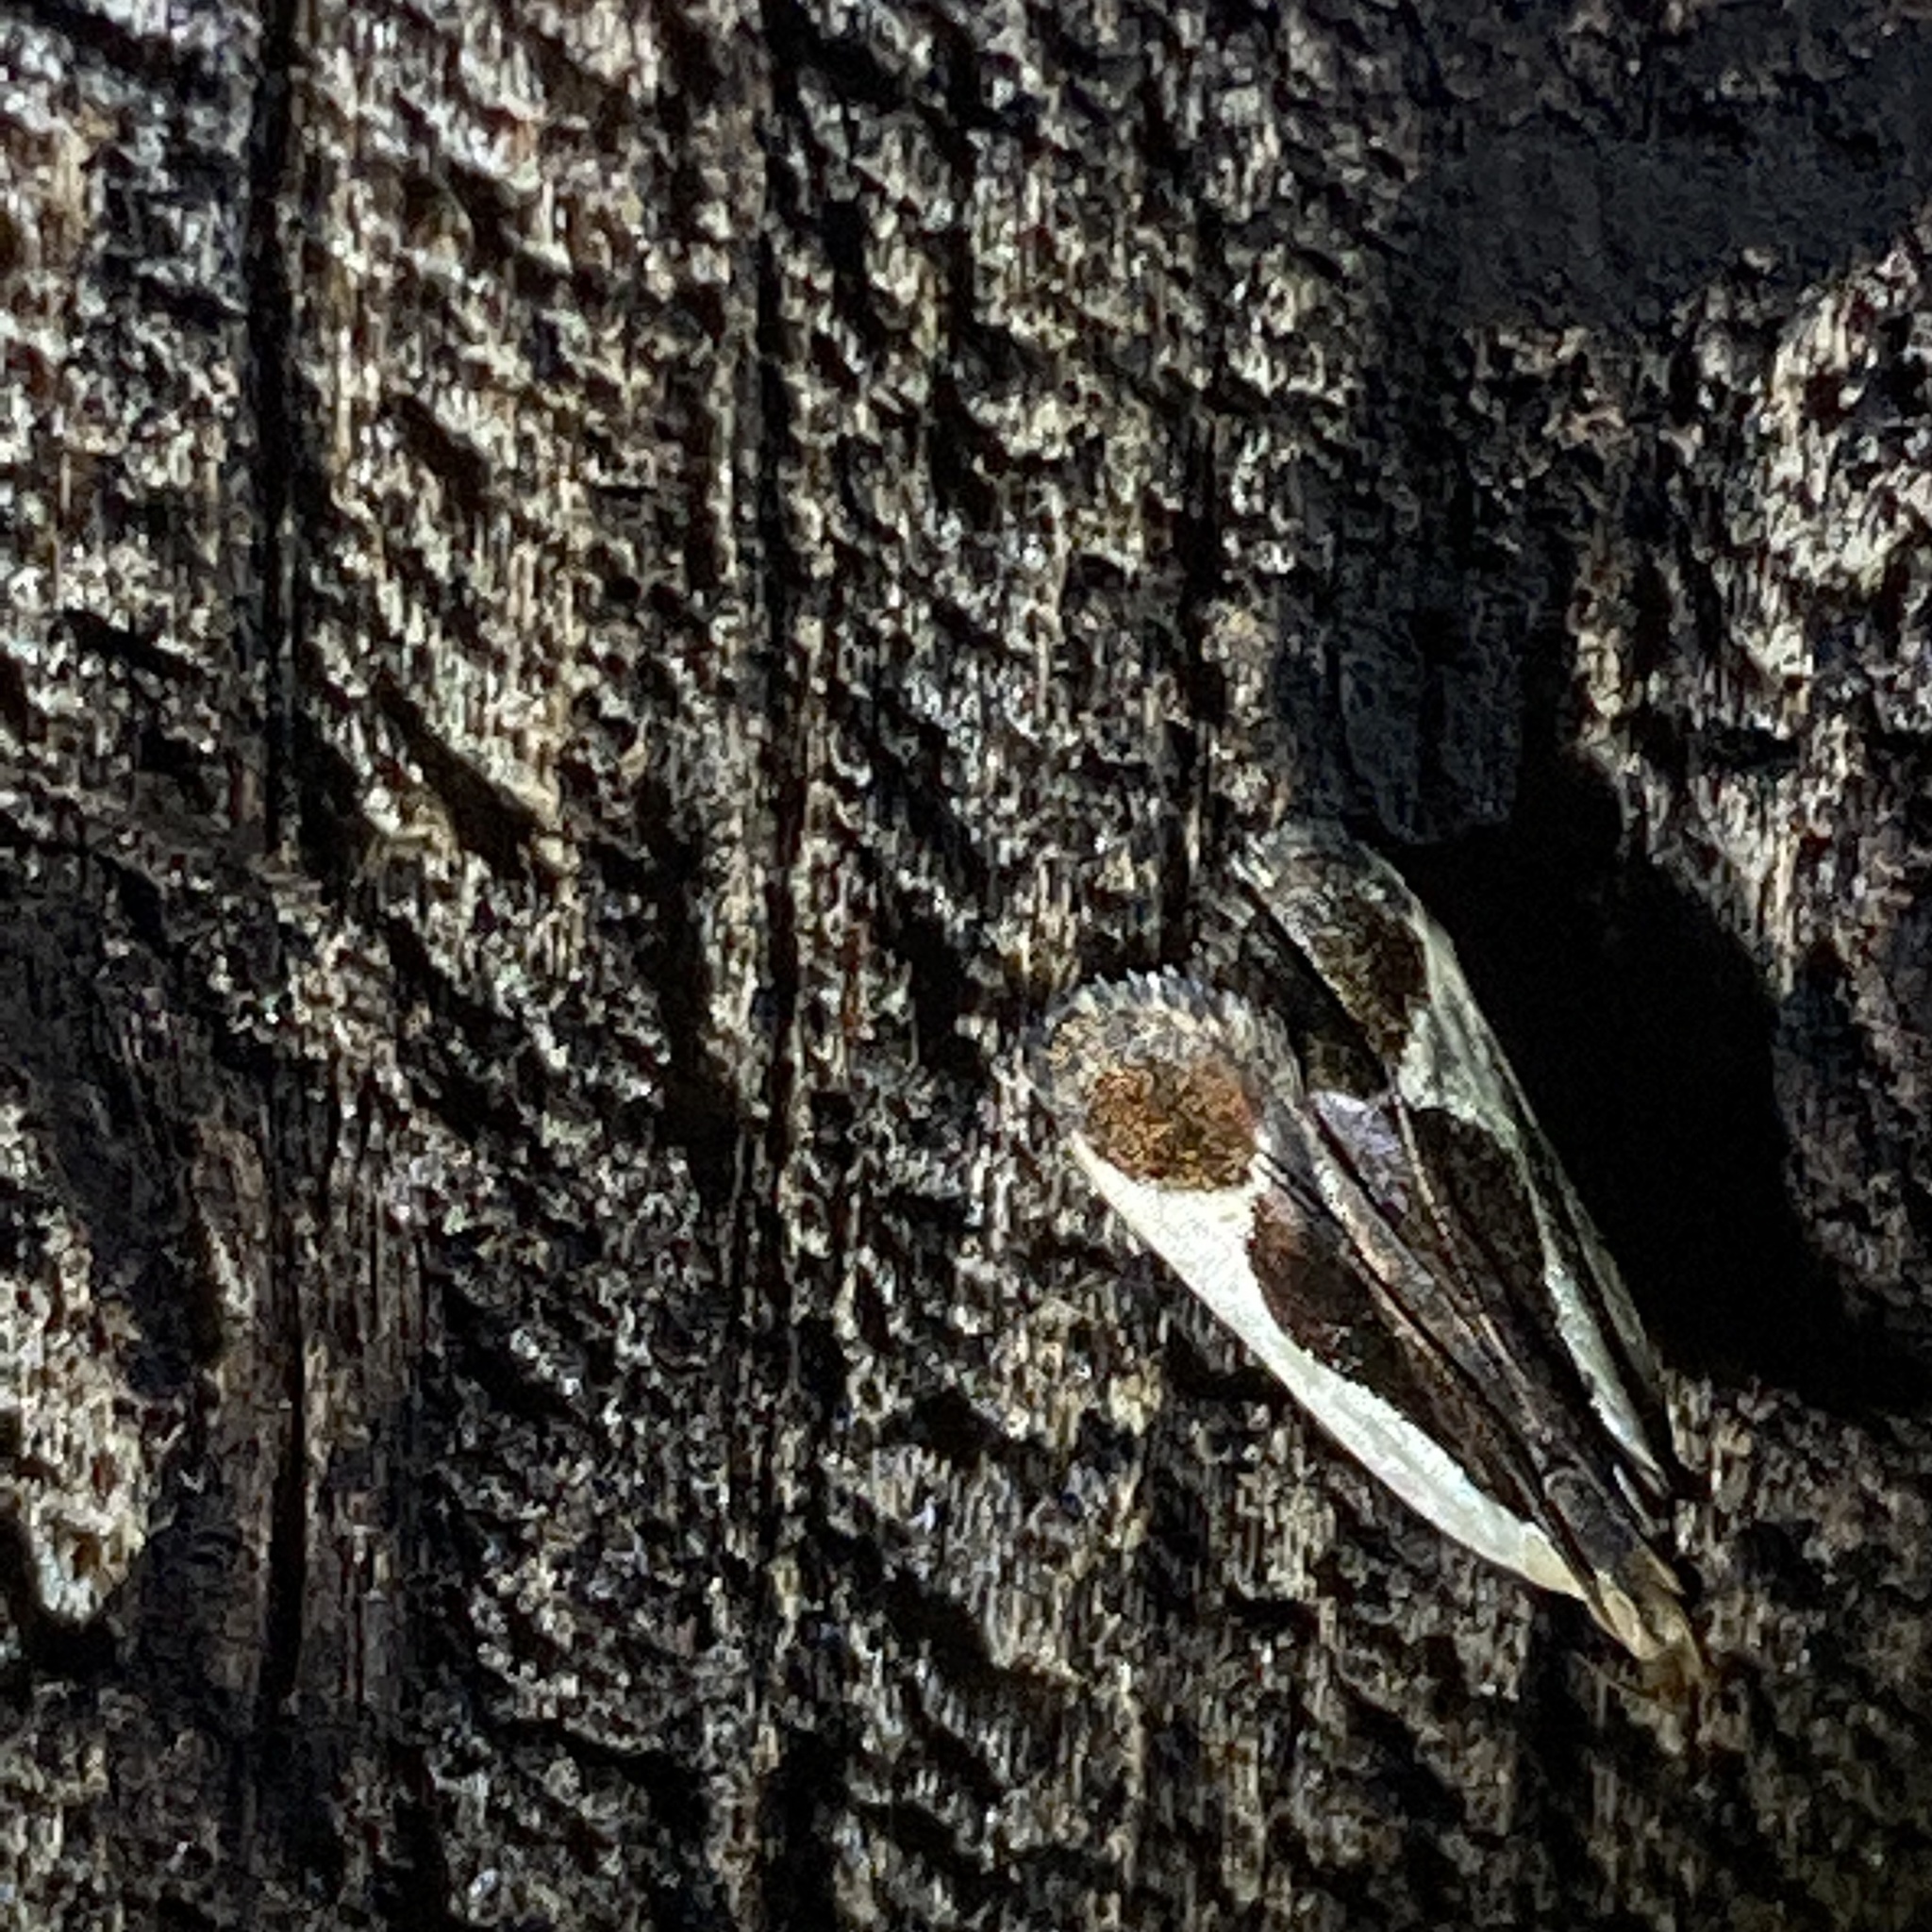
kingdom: Animalia
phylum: Arthropoda
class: Insecta
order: Lepidoptera
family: Gelechiidae
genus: Dichomeris
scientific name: Dichomeris flavocostella
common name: Cream-edged dichomeris moth
